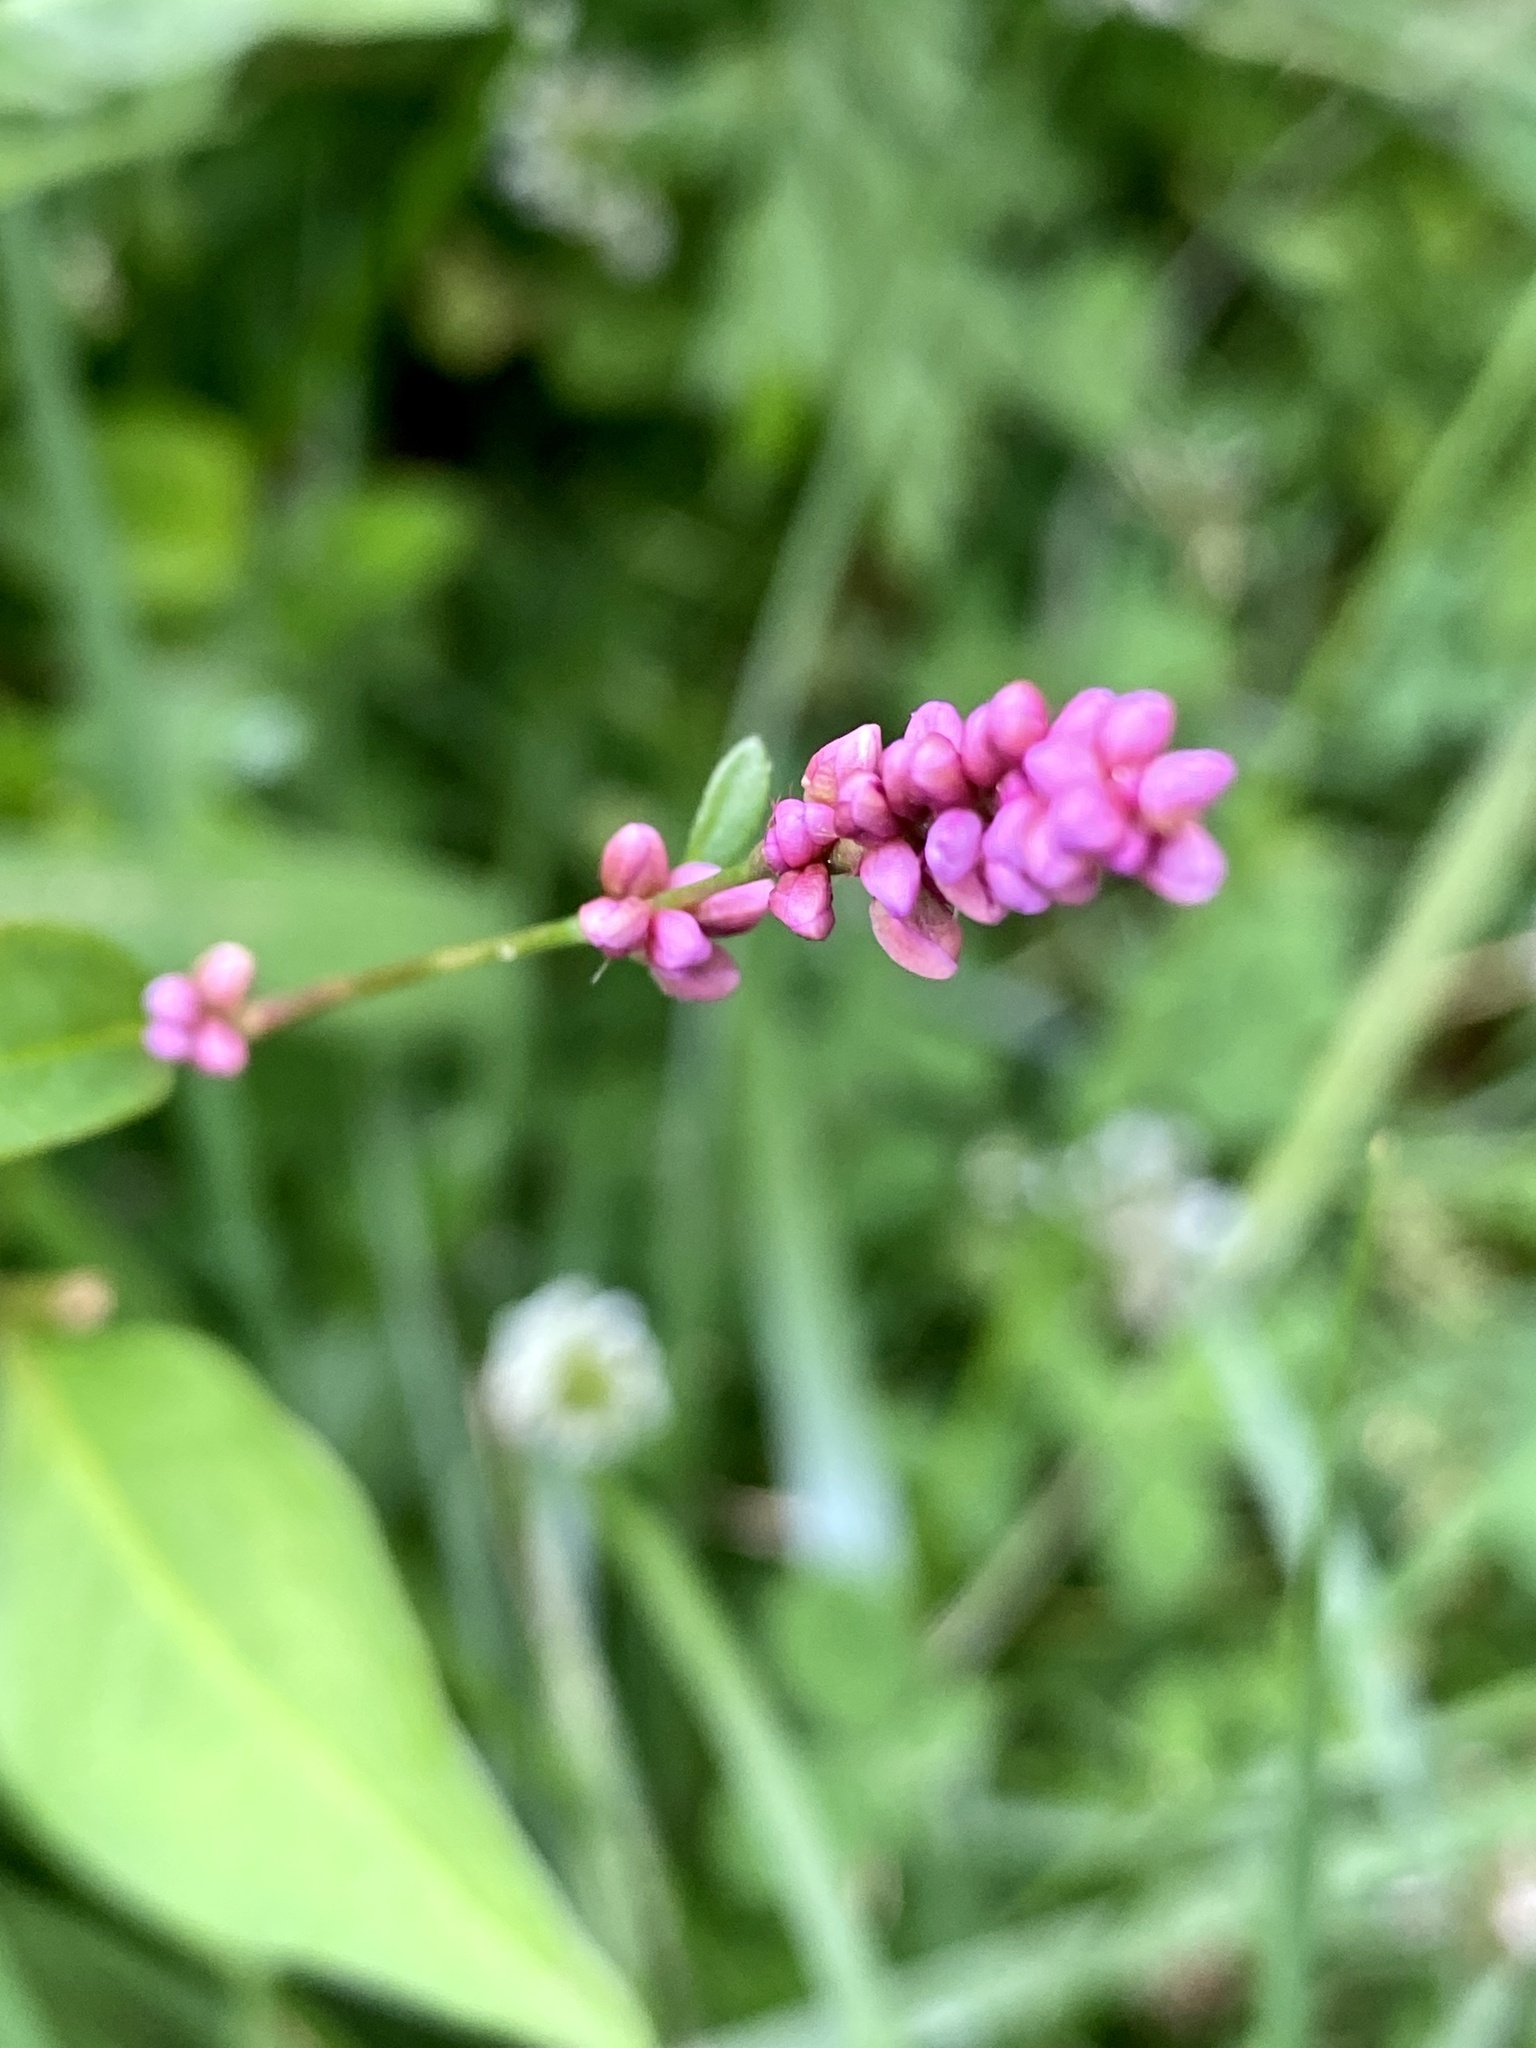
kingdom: Plantae
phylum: Tracheophyta
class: Magnoliopsida
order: Caryophyllales
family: Polygonaceae
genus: Persicaria
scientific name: Persicaria longiseta
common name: Bristly lady's-thumb
